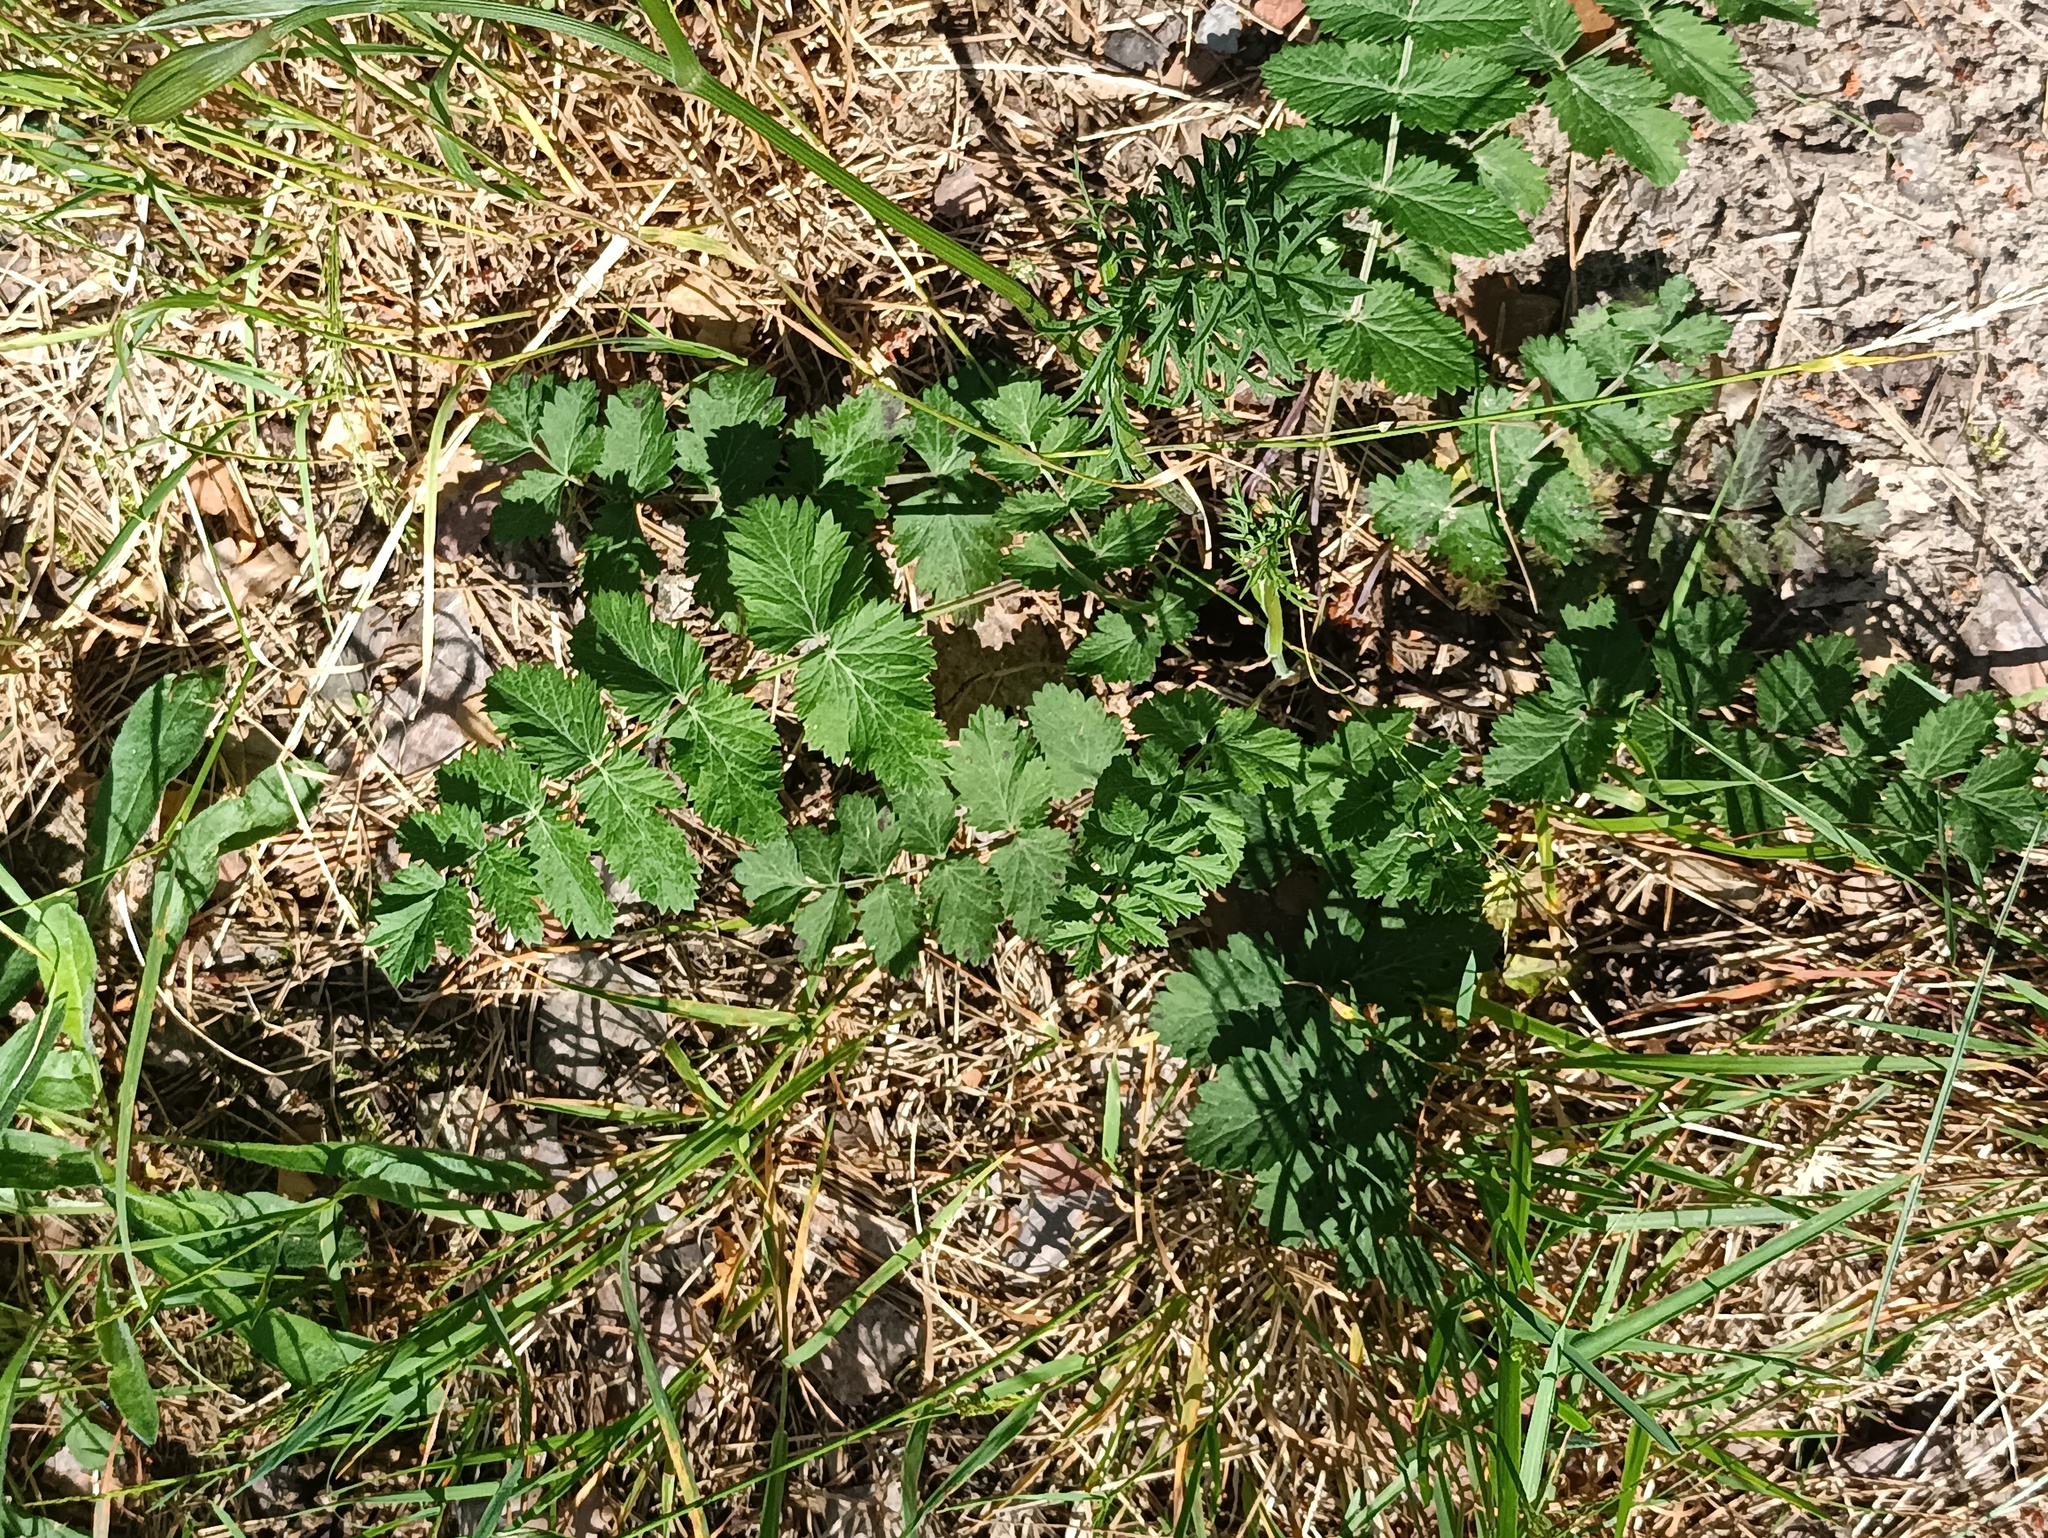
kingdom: Plantae
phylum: Tracheophyta
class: Magnoliopsida
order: Apiales
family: Apiaceae
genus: Pimpinella
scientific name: Pimpinella saxifraga
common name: Burnet-saxifrage
